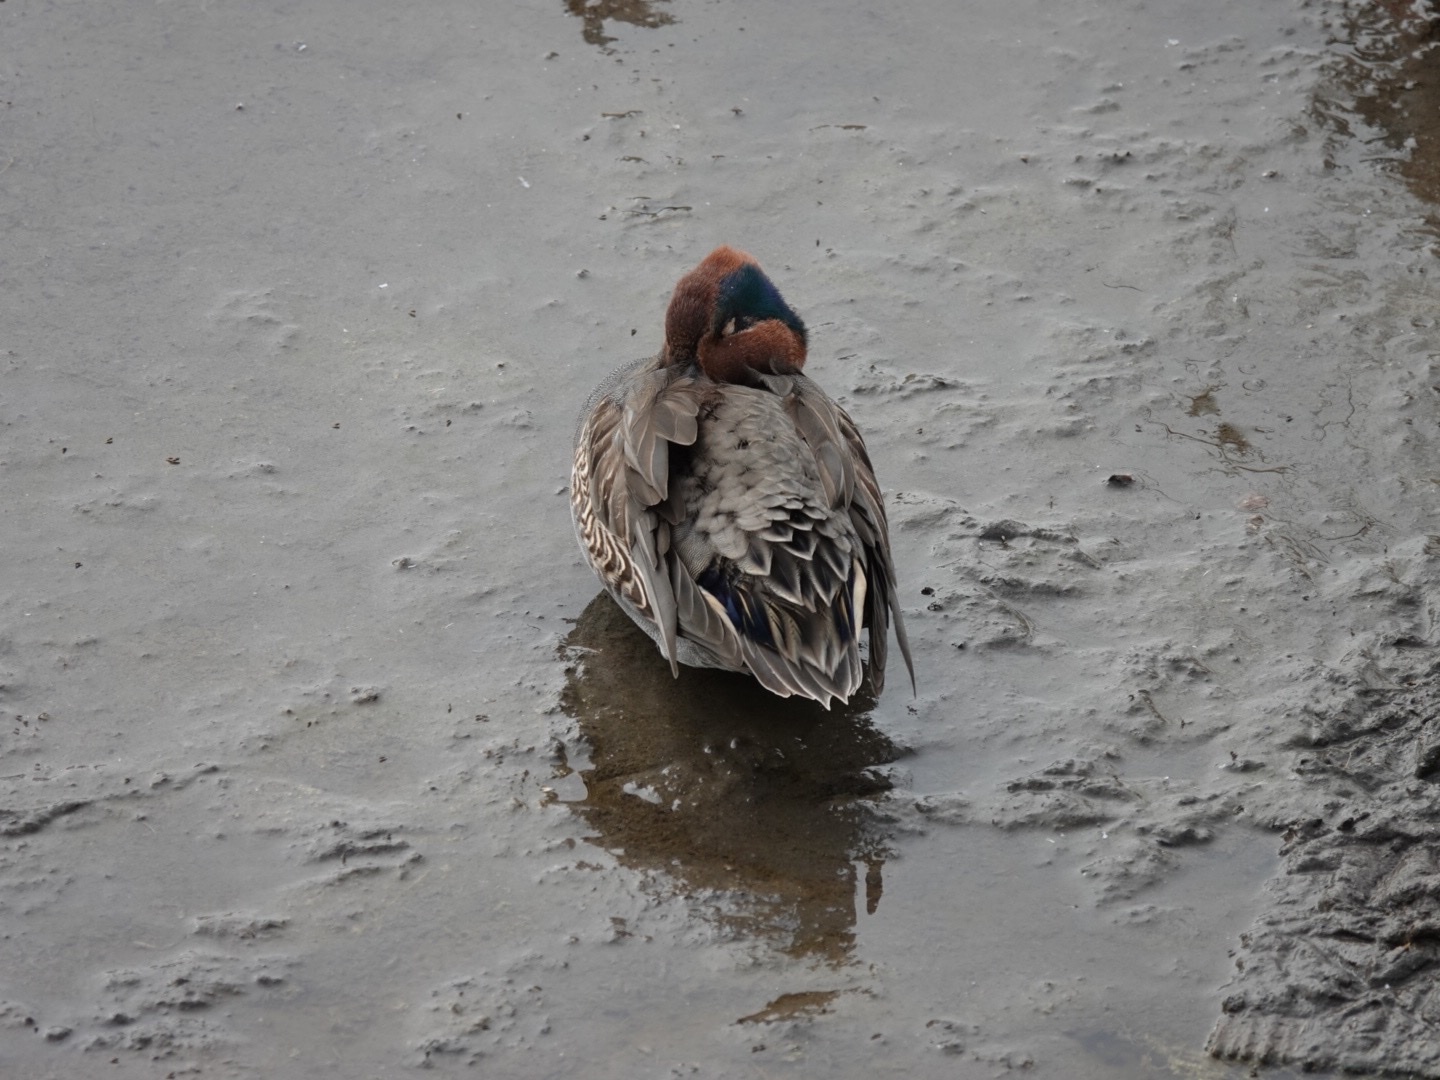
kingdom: Animalia
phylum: Chordata
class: Aves
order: Anseriformes
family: Anatidae
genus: Anas
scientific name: Anas crecca
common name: Eurasian teal
